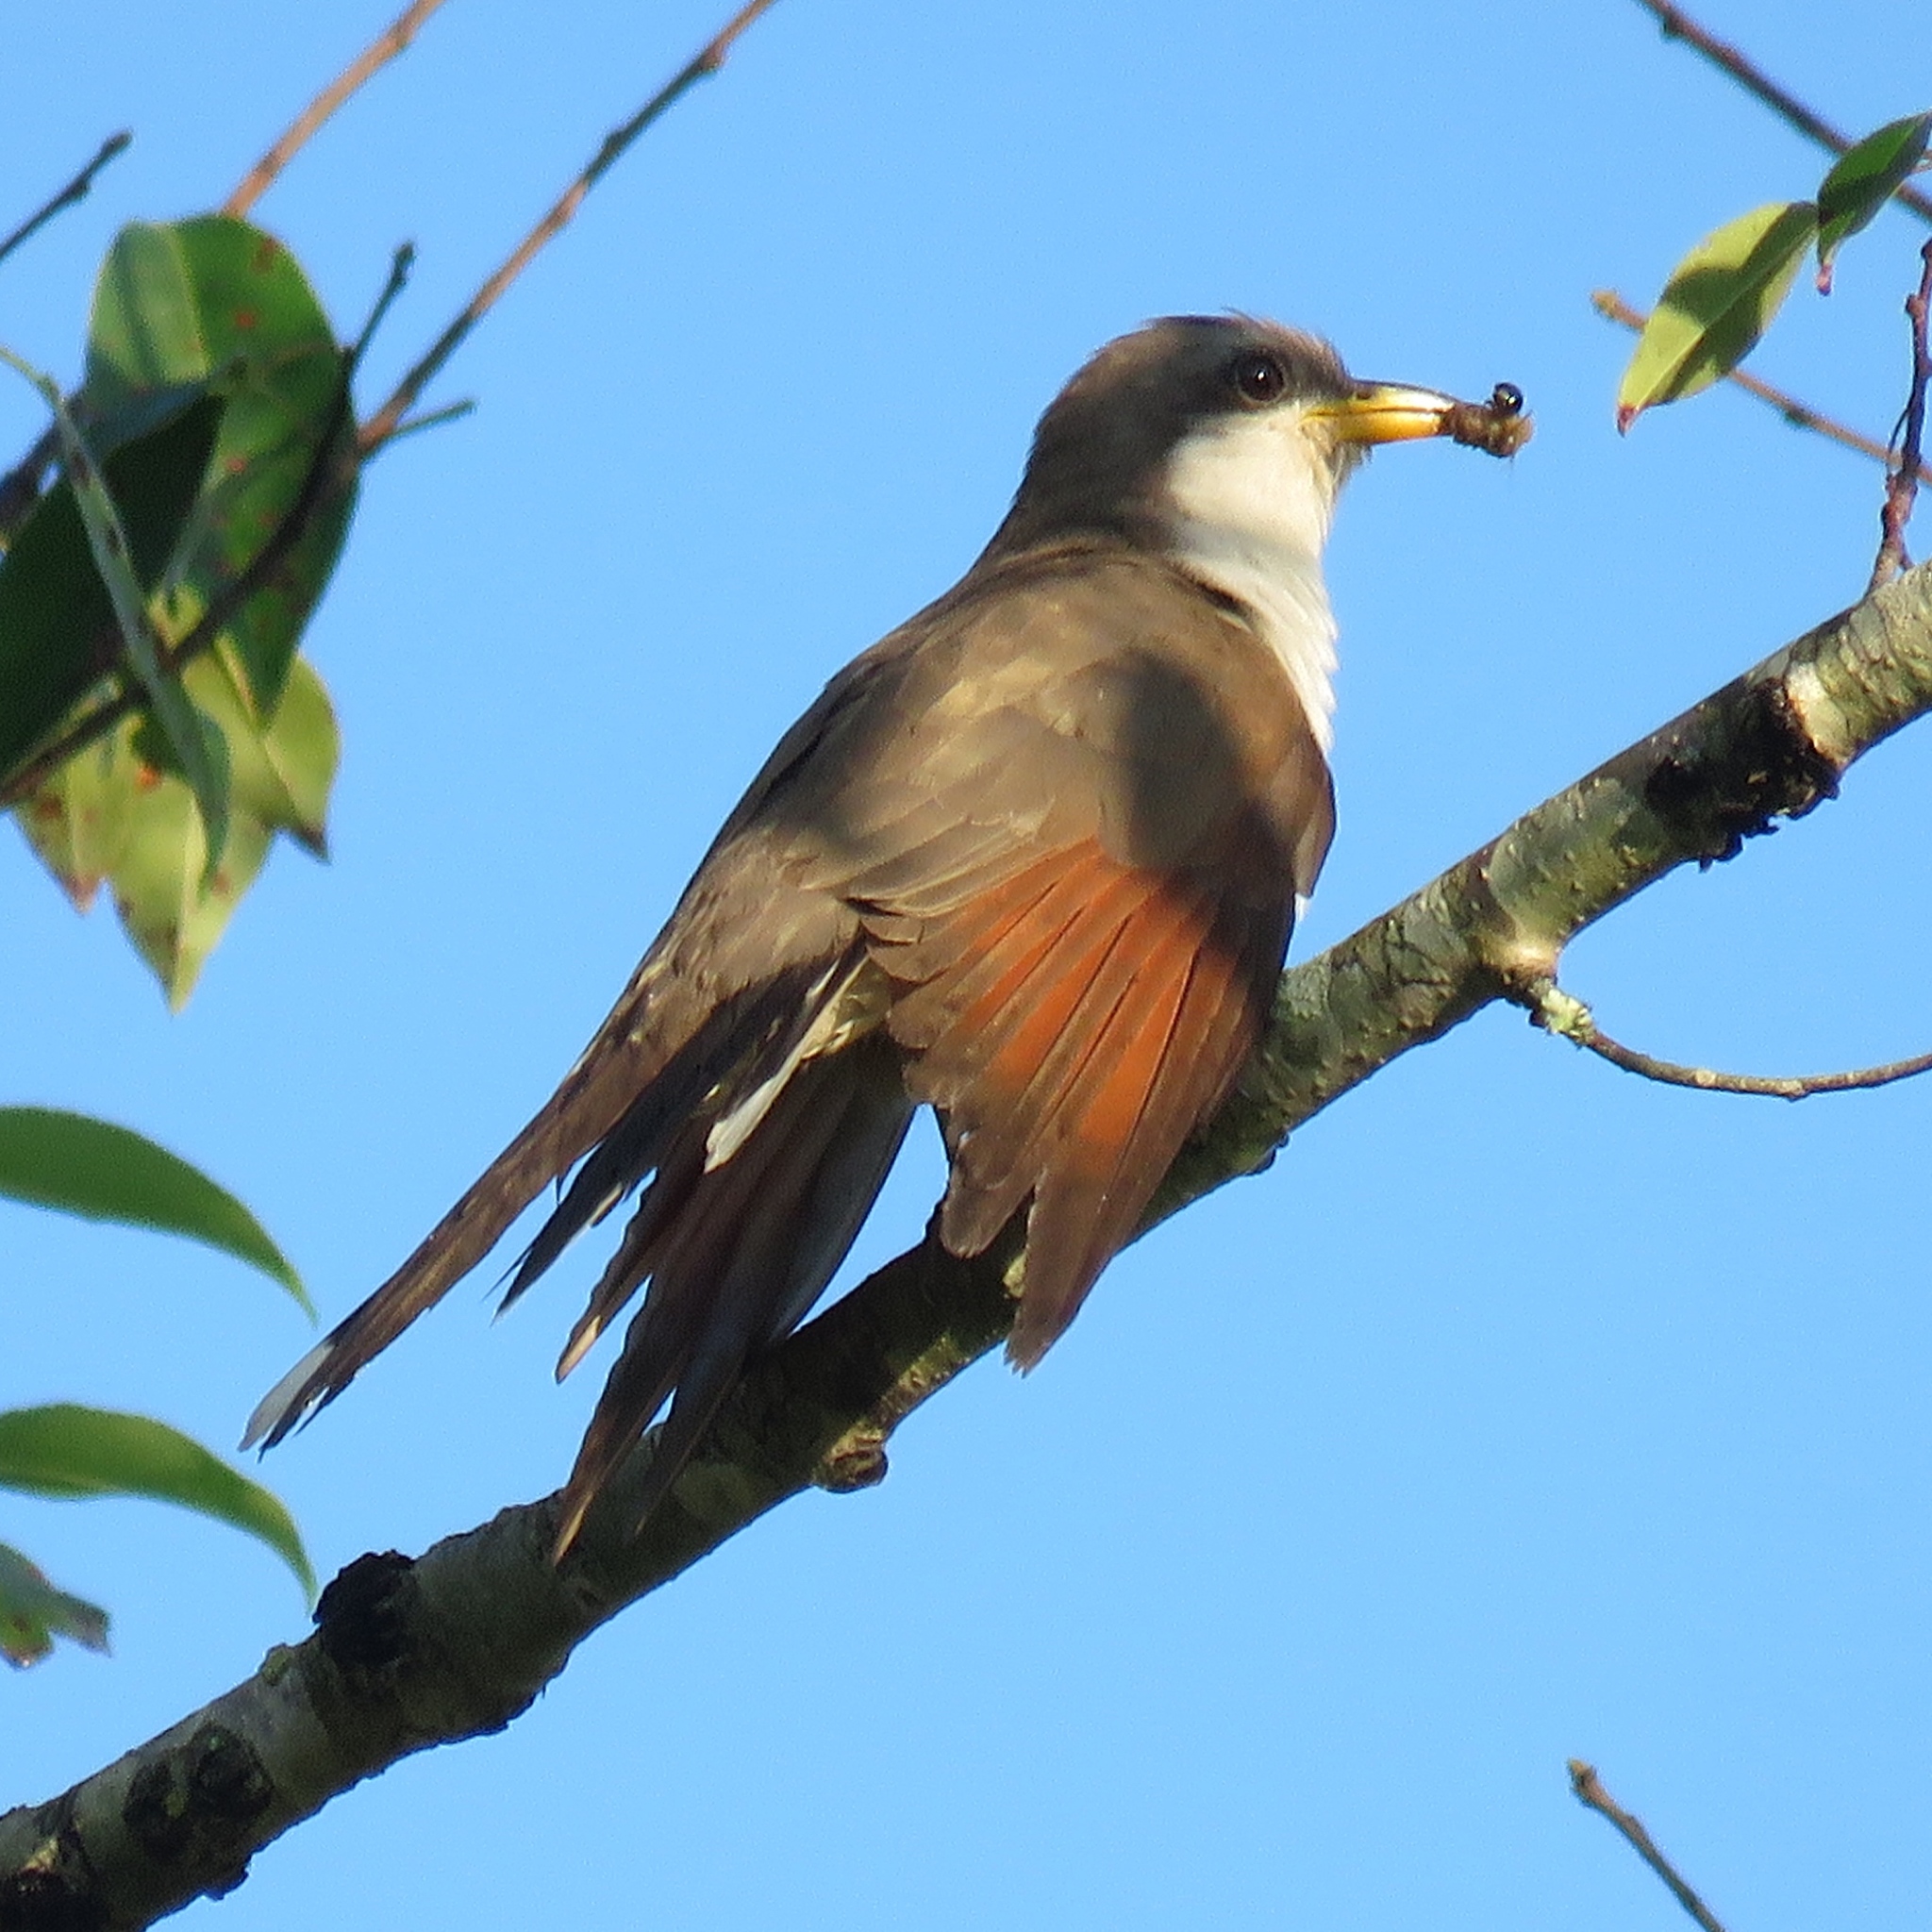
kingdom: Animalia
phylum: Chordata
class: Aves
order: Cuculiformes
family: Cuculidae
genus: Coccyzus
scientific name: Coccyzus americanus
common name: Yellow-billed cuckoo
